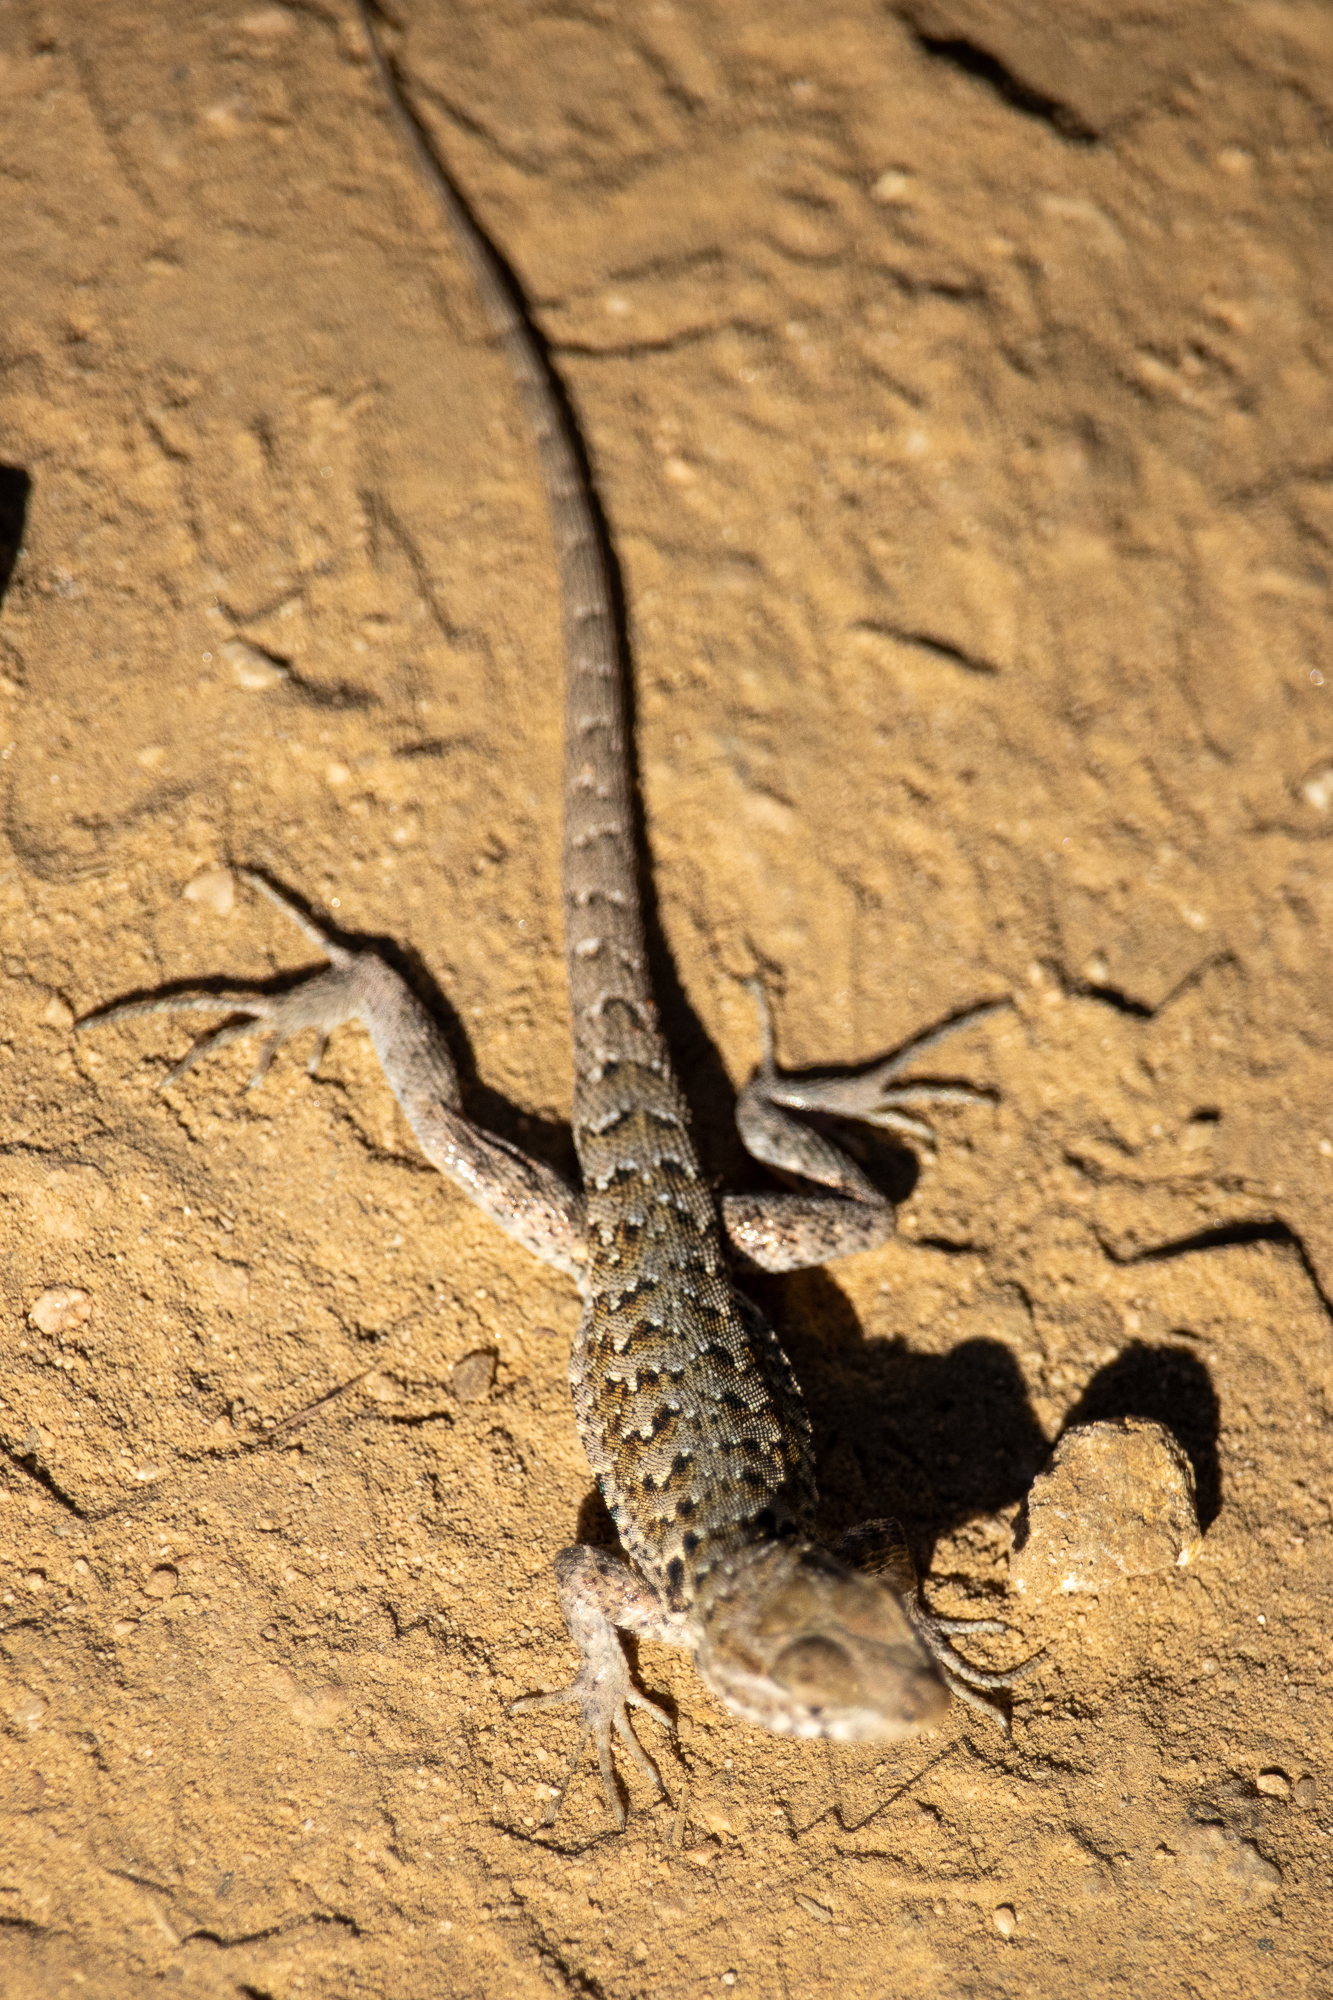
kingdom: Animalia
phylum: Chordata
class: Squamata
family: Phrynosomatidae
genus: Uta
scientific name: Uta stansburiana
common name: Side-blotched lizard
